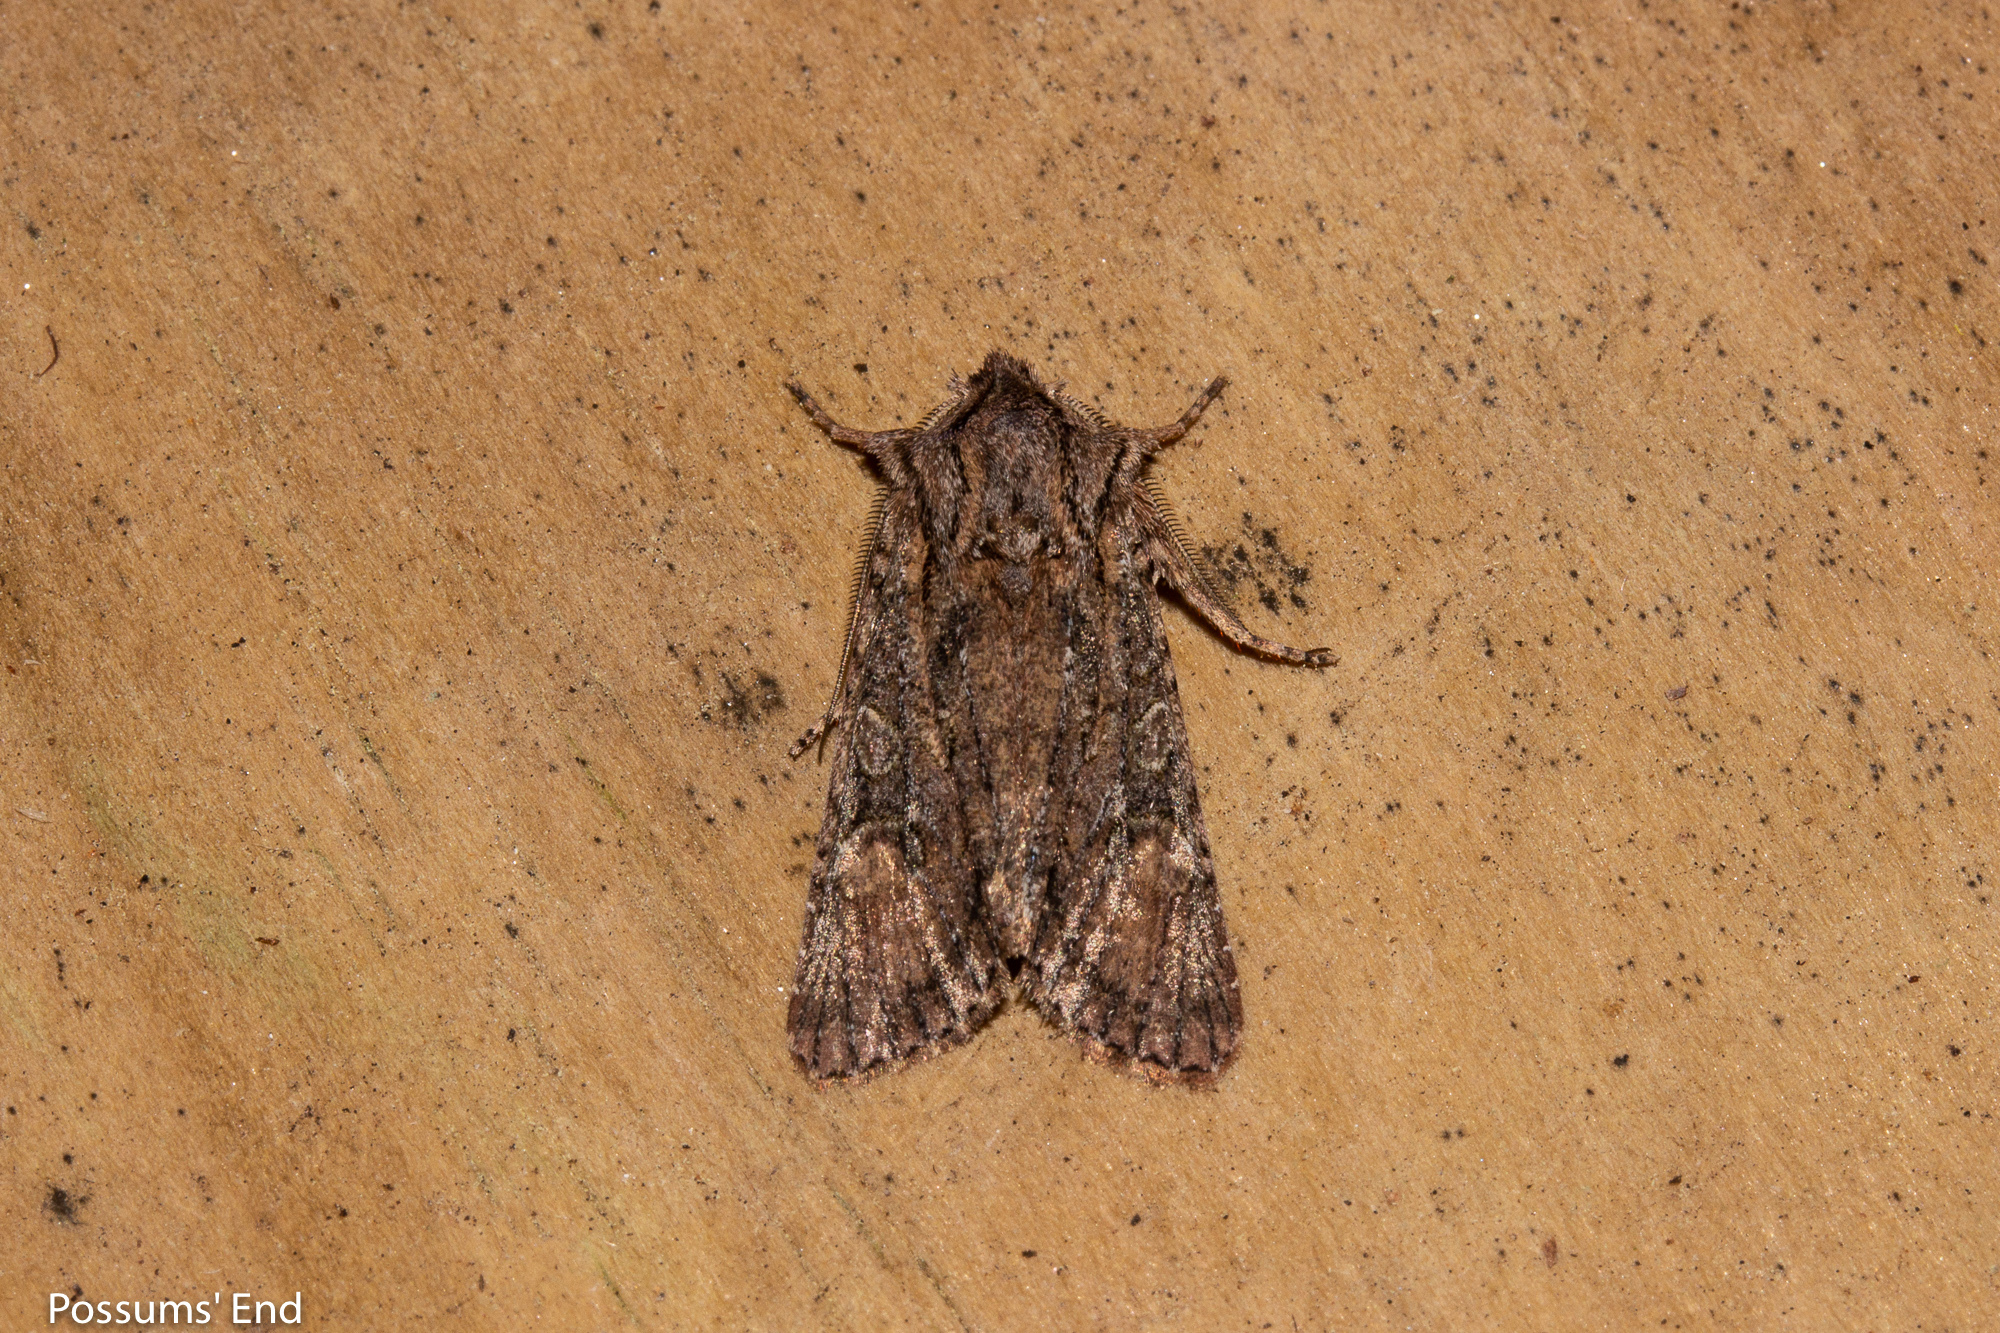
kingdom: Animalia
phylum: Arthropoda
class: Insecta
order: Lepidoptera
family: Noctuidae
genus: Ichneutica
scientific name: Ichneutica mutans
